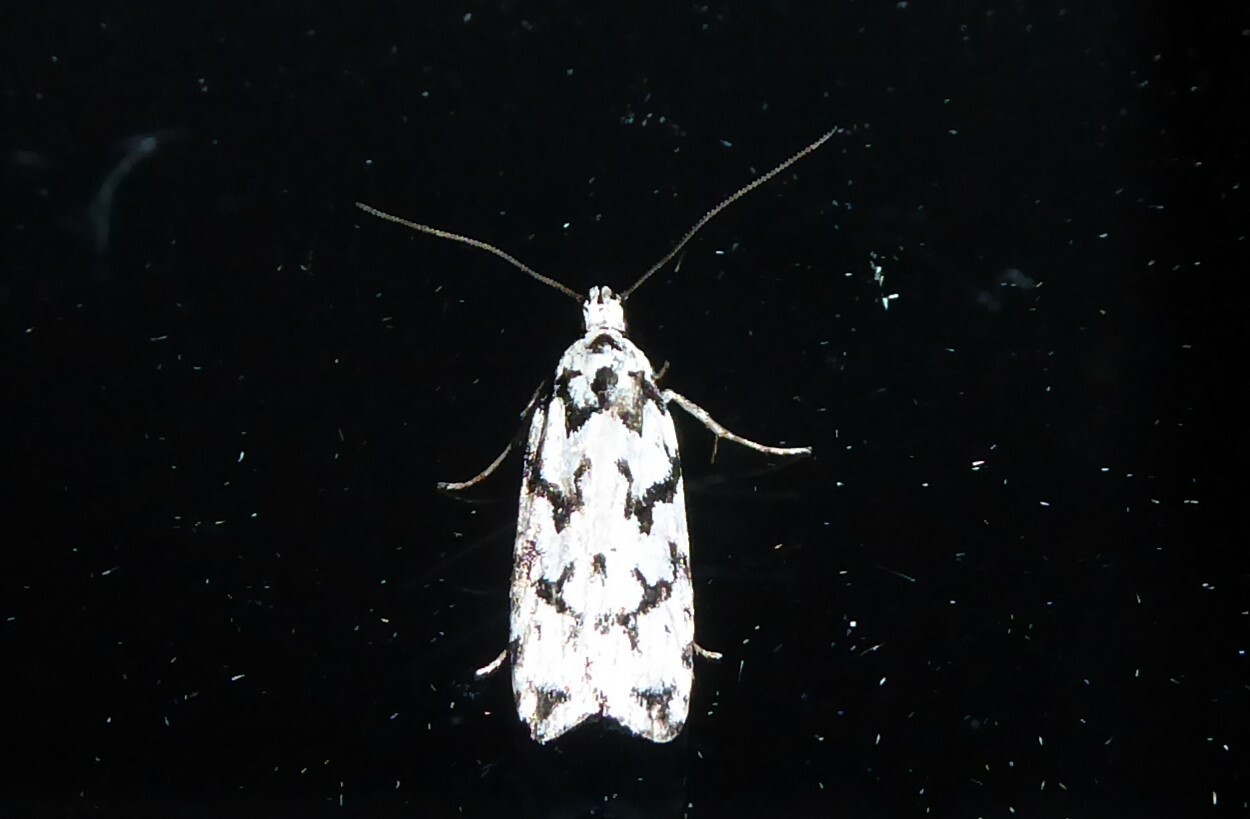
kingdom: Animalia
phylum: Arthropoda
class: Insecta
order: Lepidoptera
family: Oecophoridae
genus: Izatha
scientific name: Izatha katadiktya
